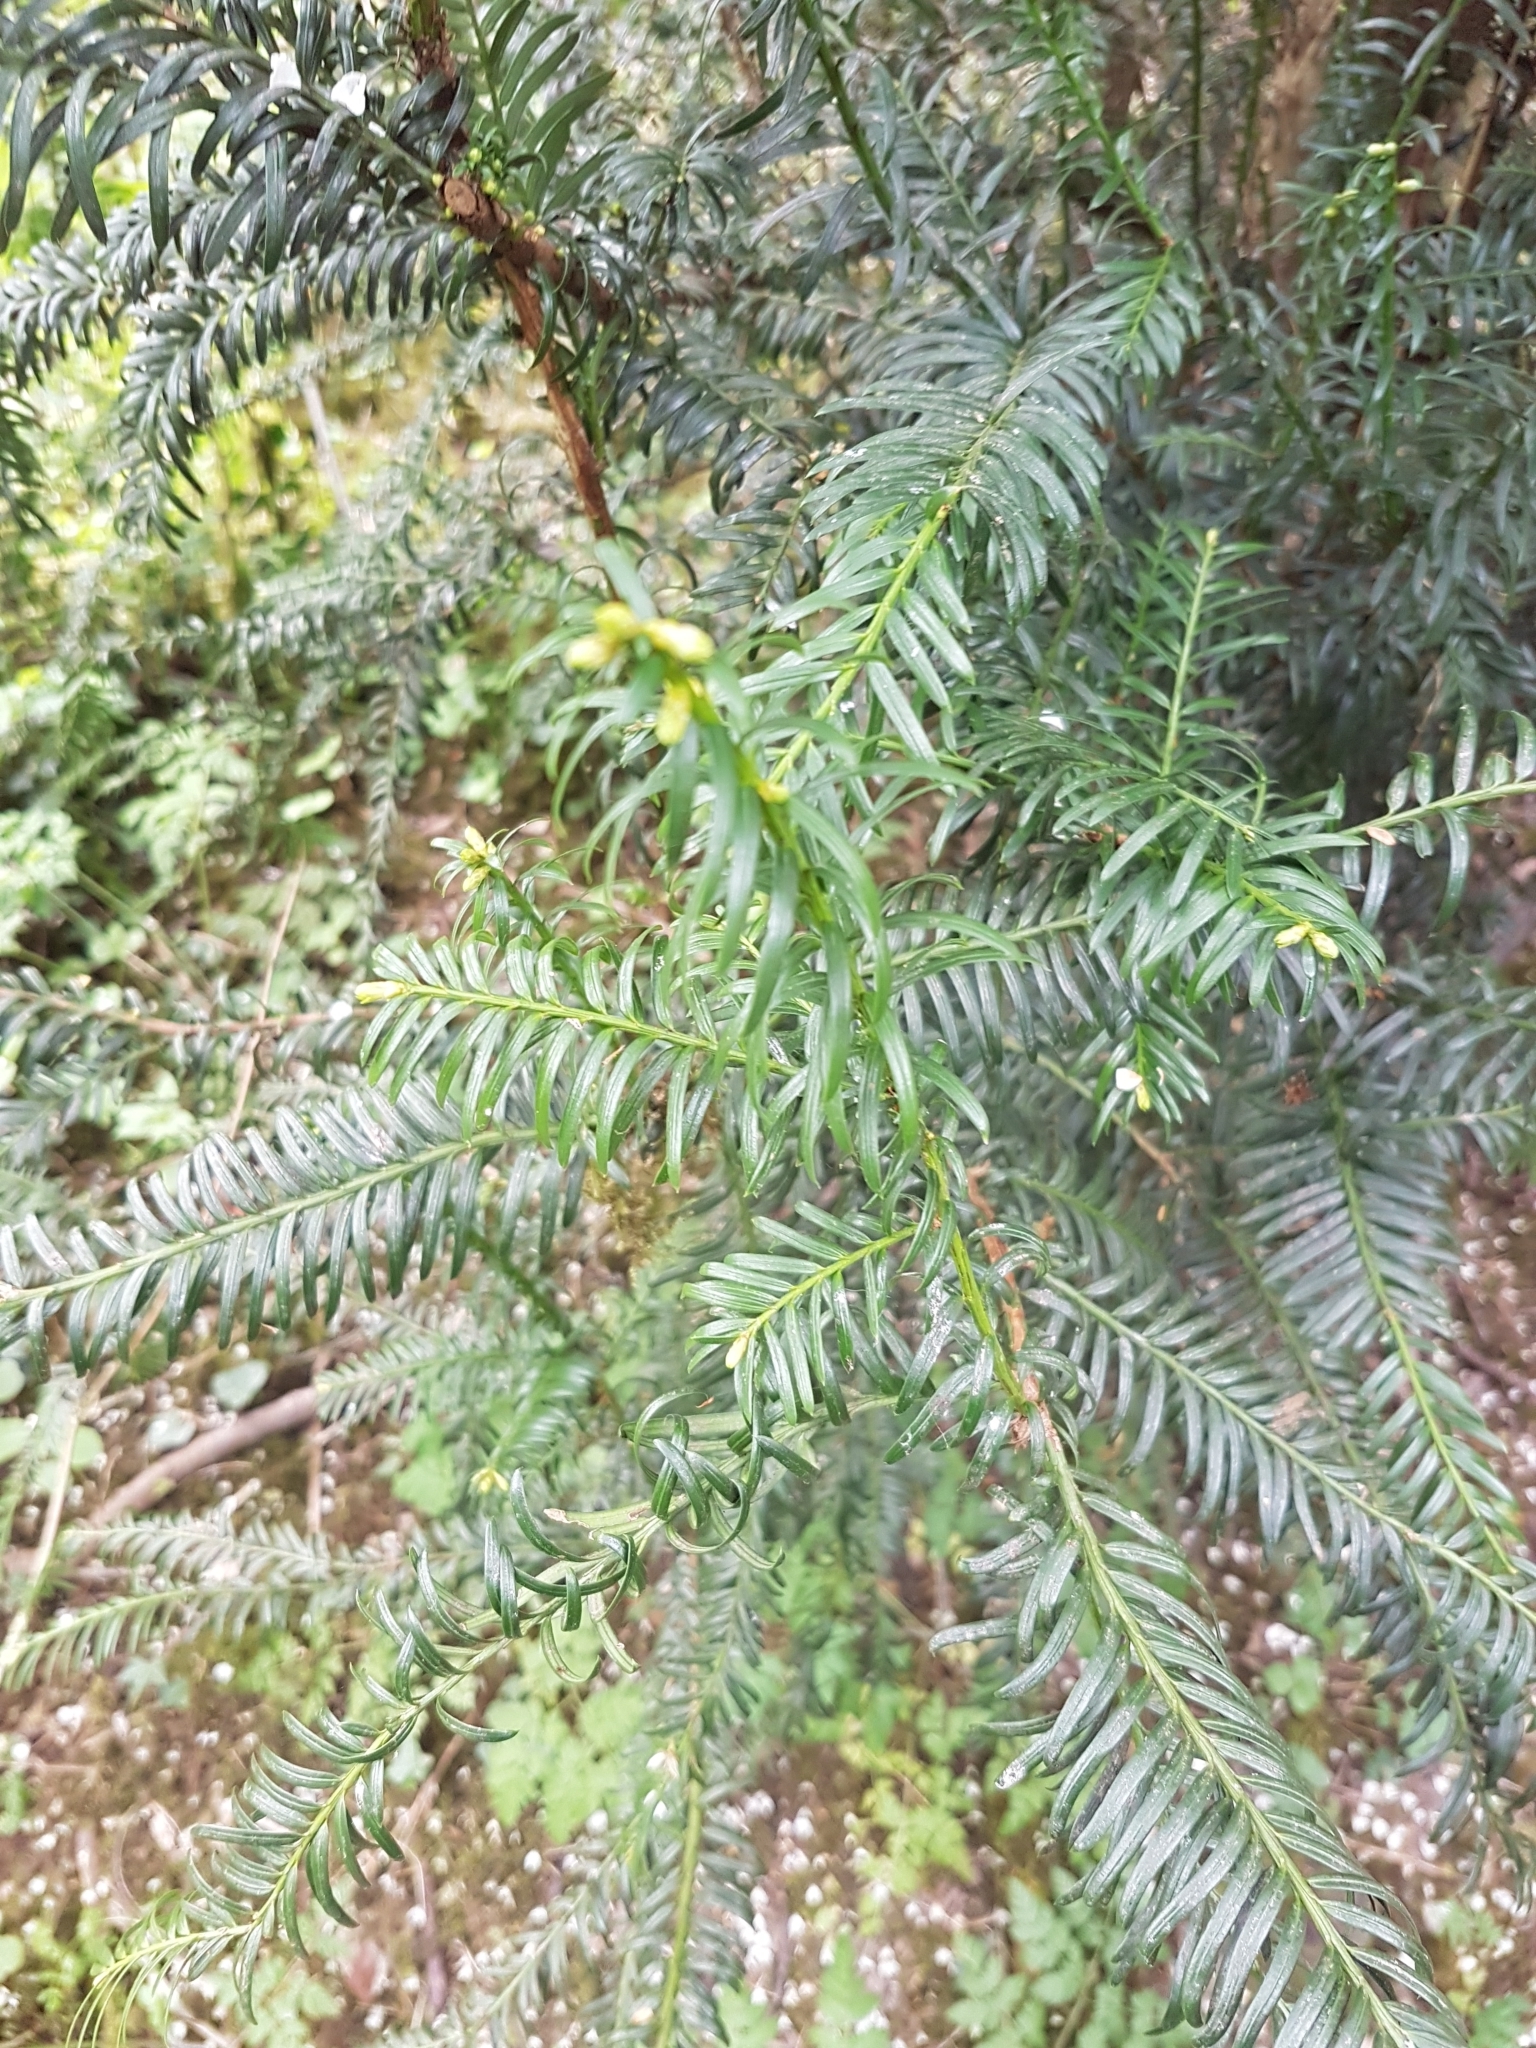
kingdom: Plantae
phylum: Tracheophyta
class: Pinopsida
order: Pinales
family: Taxaceae
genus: Taxus
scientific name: Taxus baccata
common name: Yew
